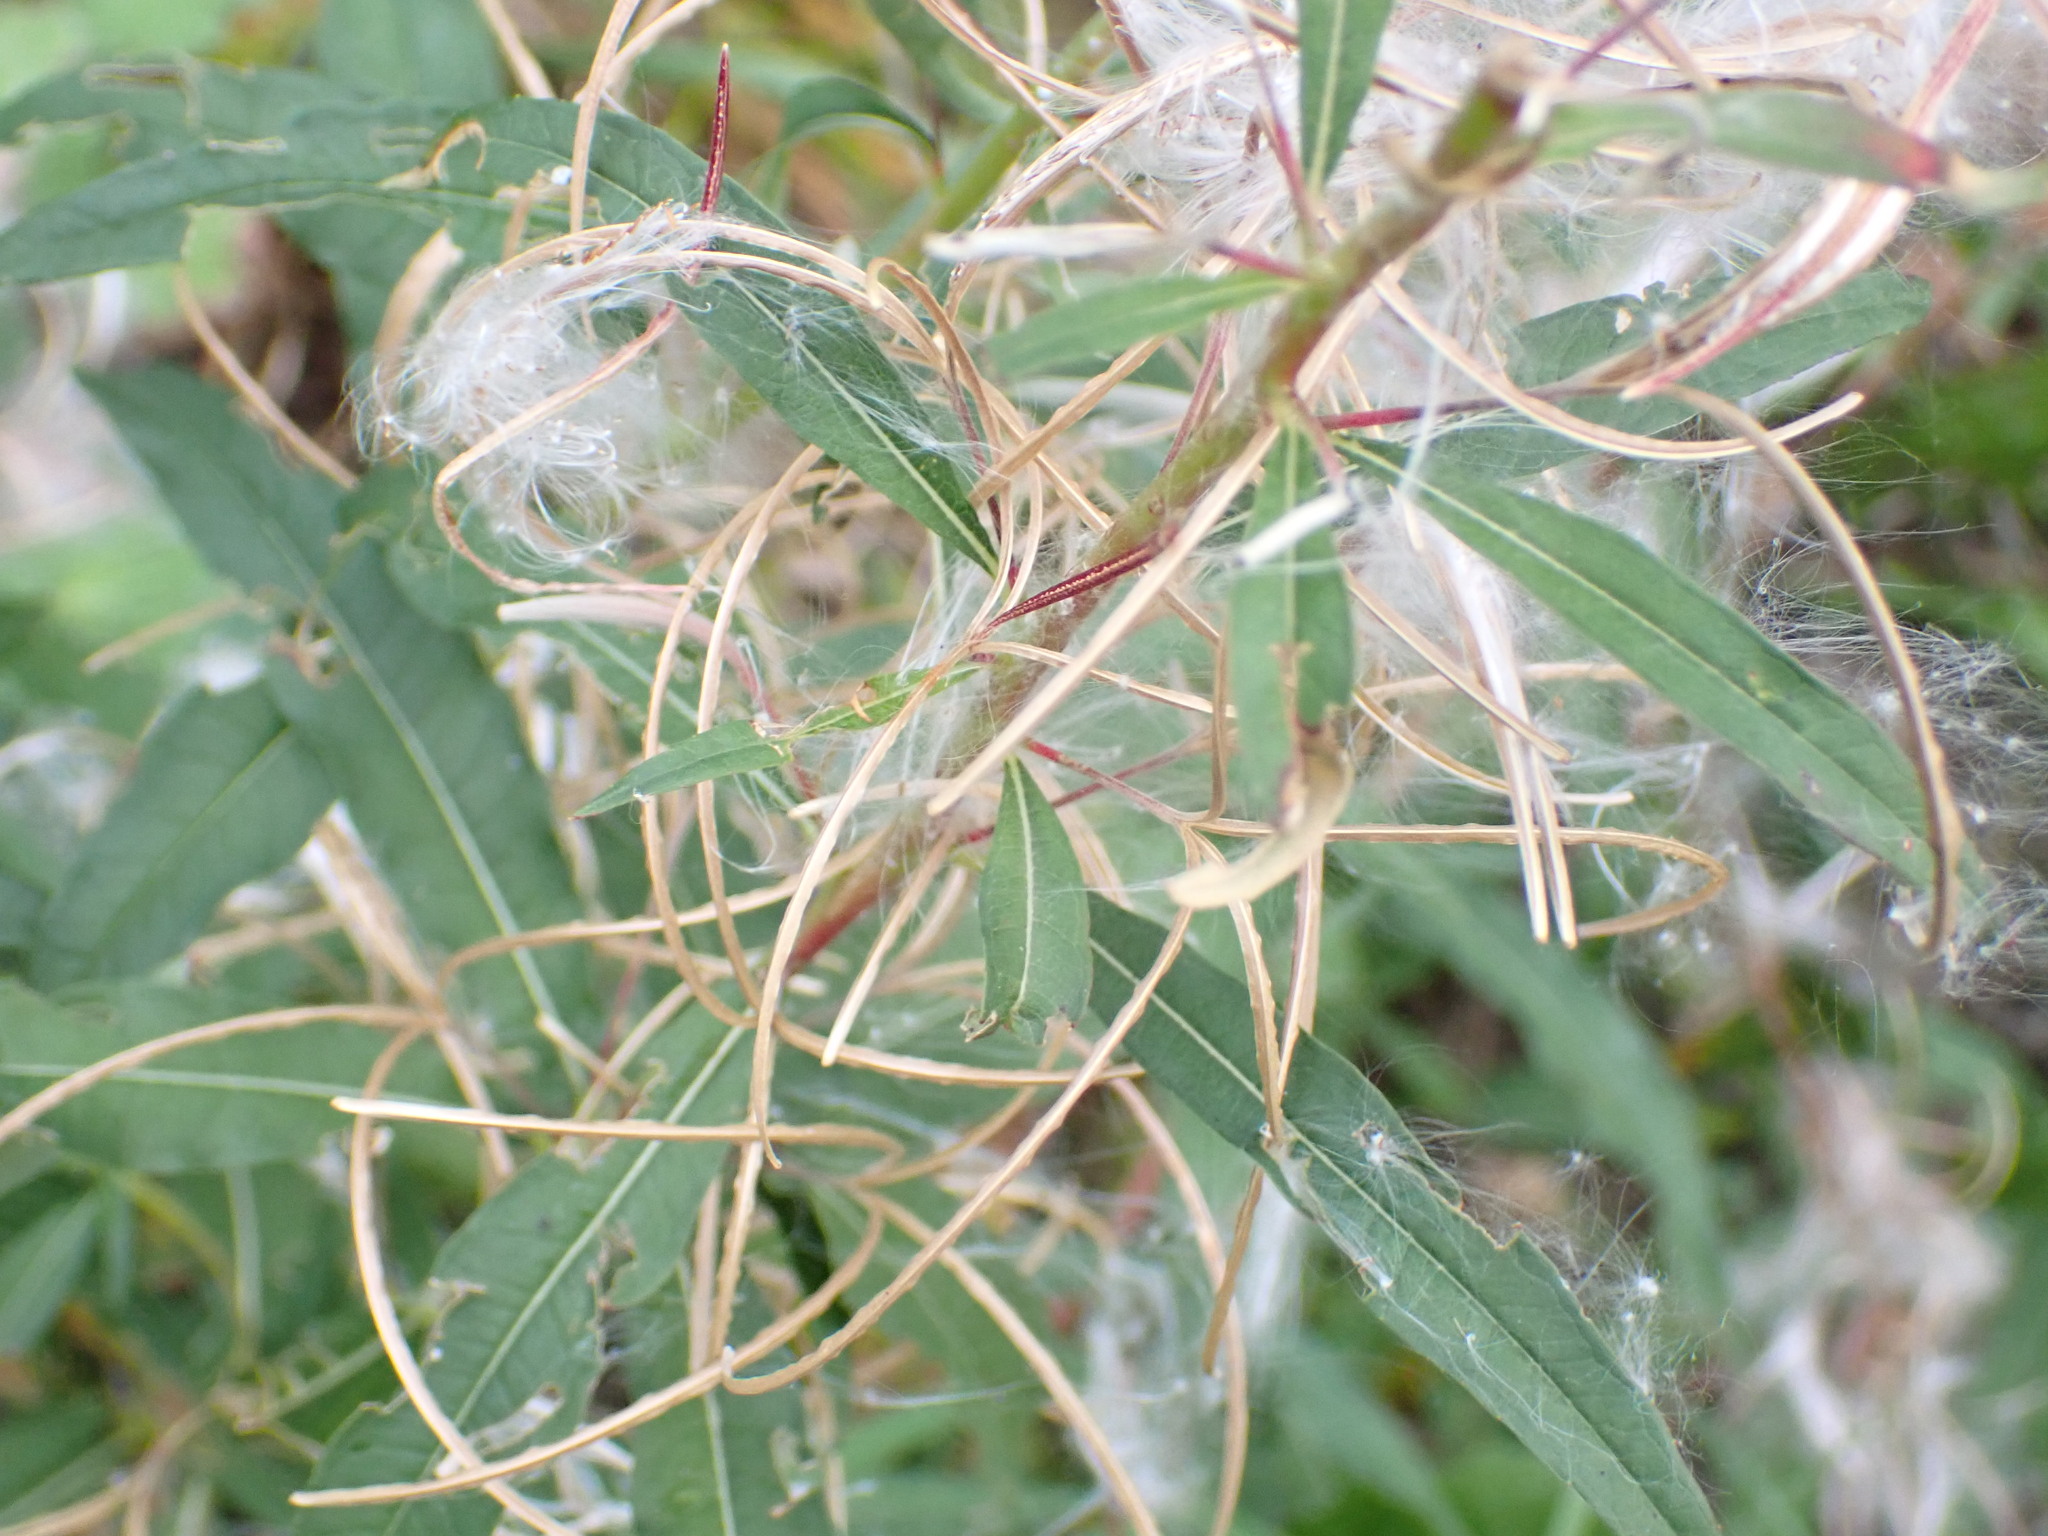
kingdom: Plantae
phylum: Tracheophyta
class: Magnoliopsida
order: Myrtales
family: Onagraceae
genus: Chamaenerion
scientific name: Chamaenerion angustifolium
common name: Fireweed
